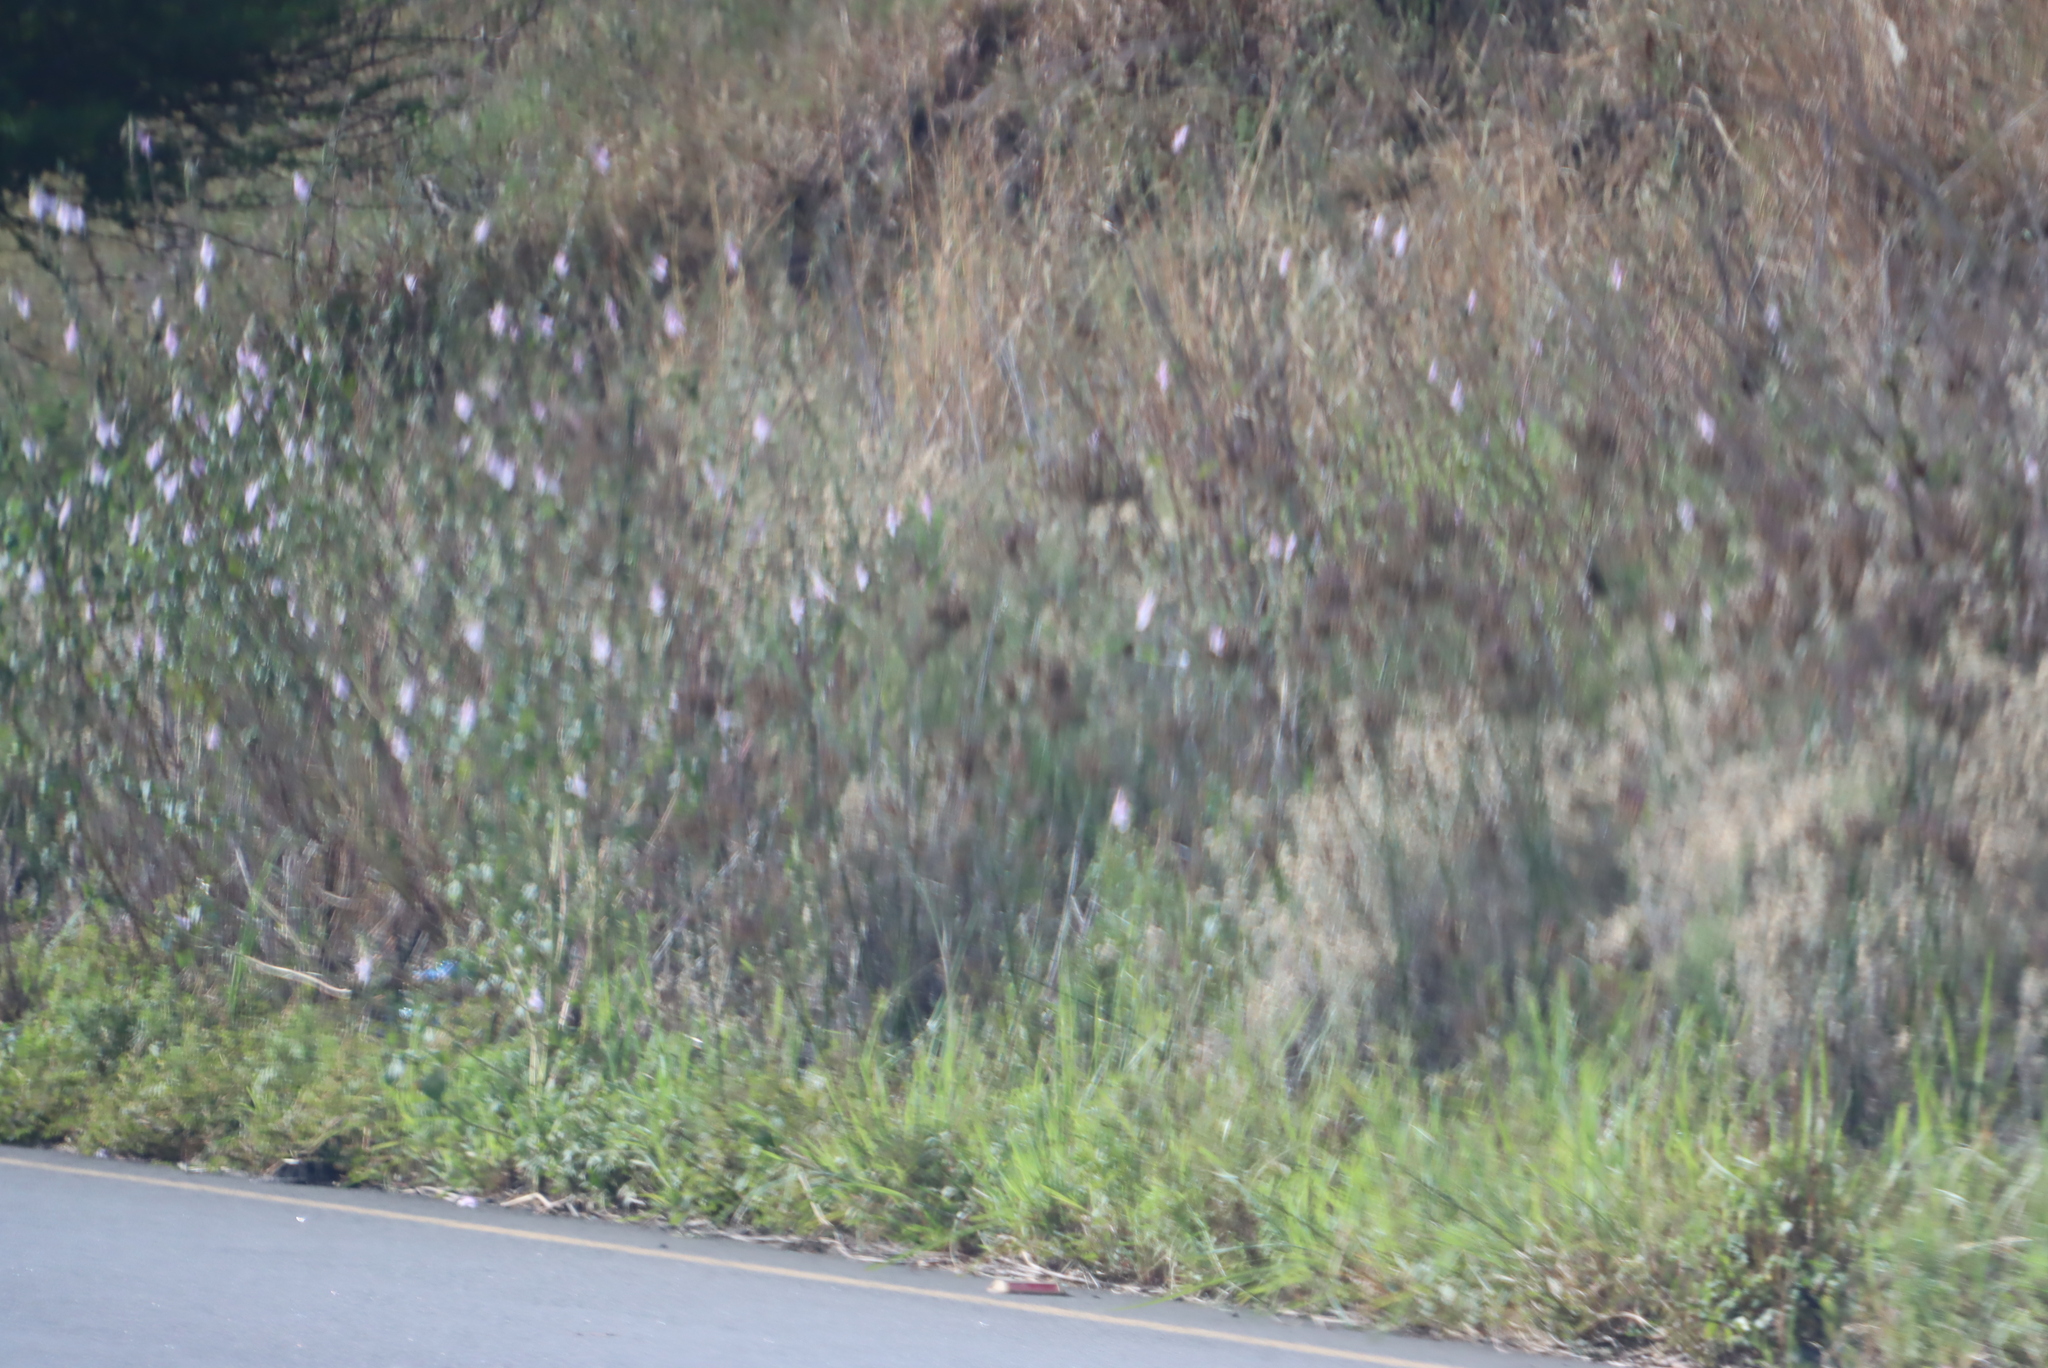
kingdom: Plantae
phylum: Tracheophyta
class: Magnoliopsida
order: Lamiales
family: Pedaliaceae
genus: Sesamum
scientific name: Sesamum trilobum
